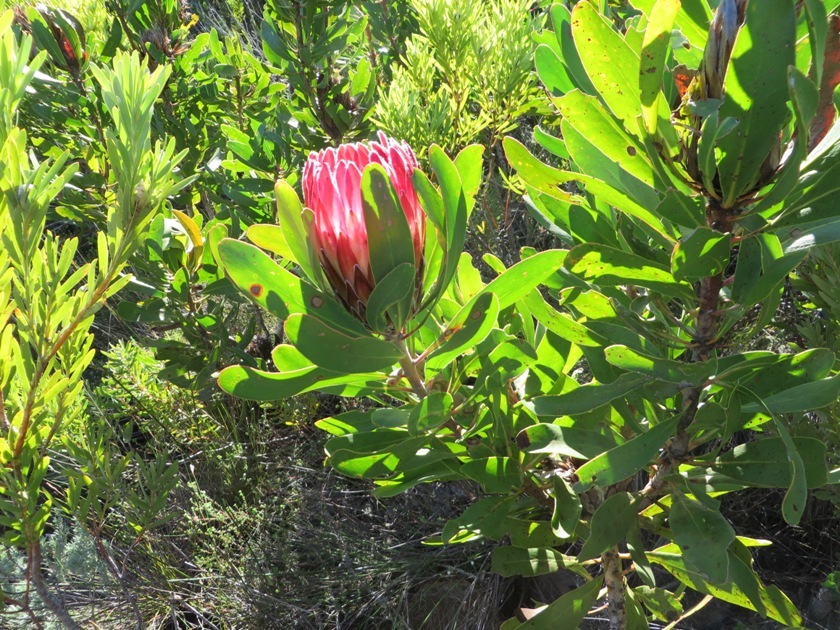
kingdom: Plantae
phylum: Tracheophyta
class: Magnoliopsida
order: Proteales
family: Proteaceae
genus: Protea
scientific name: Protea obtusifolia
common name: Bredasdorp sugarbush
